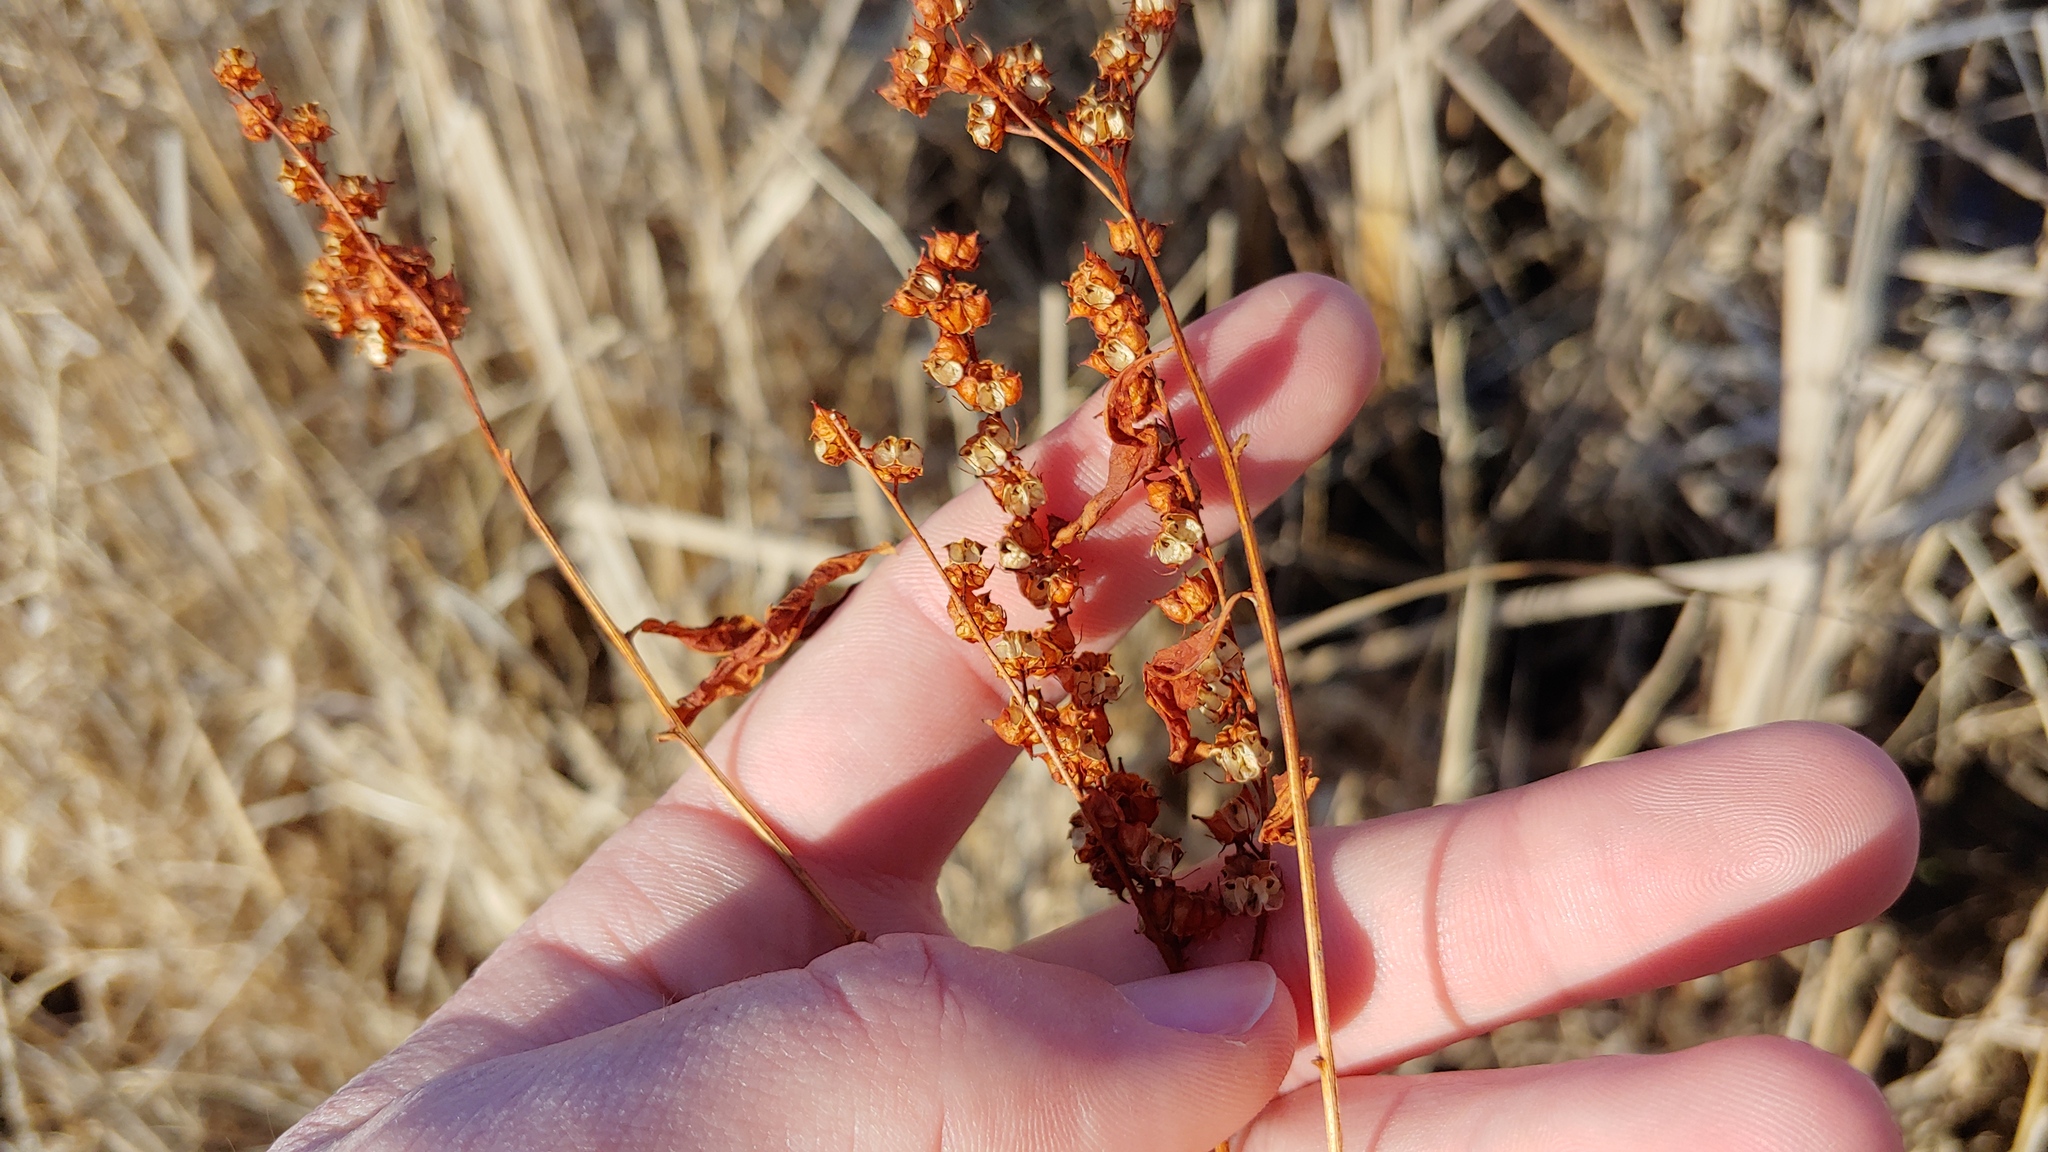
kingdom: Plantae
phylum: Tracheophyta
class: Magnoliopsida
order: Saxifragales
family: Penthoraceae
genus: Penthorum
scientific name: Penthorum sedoides
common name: Ditch stonecrop
